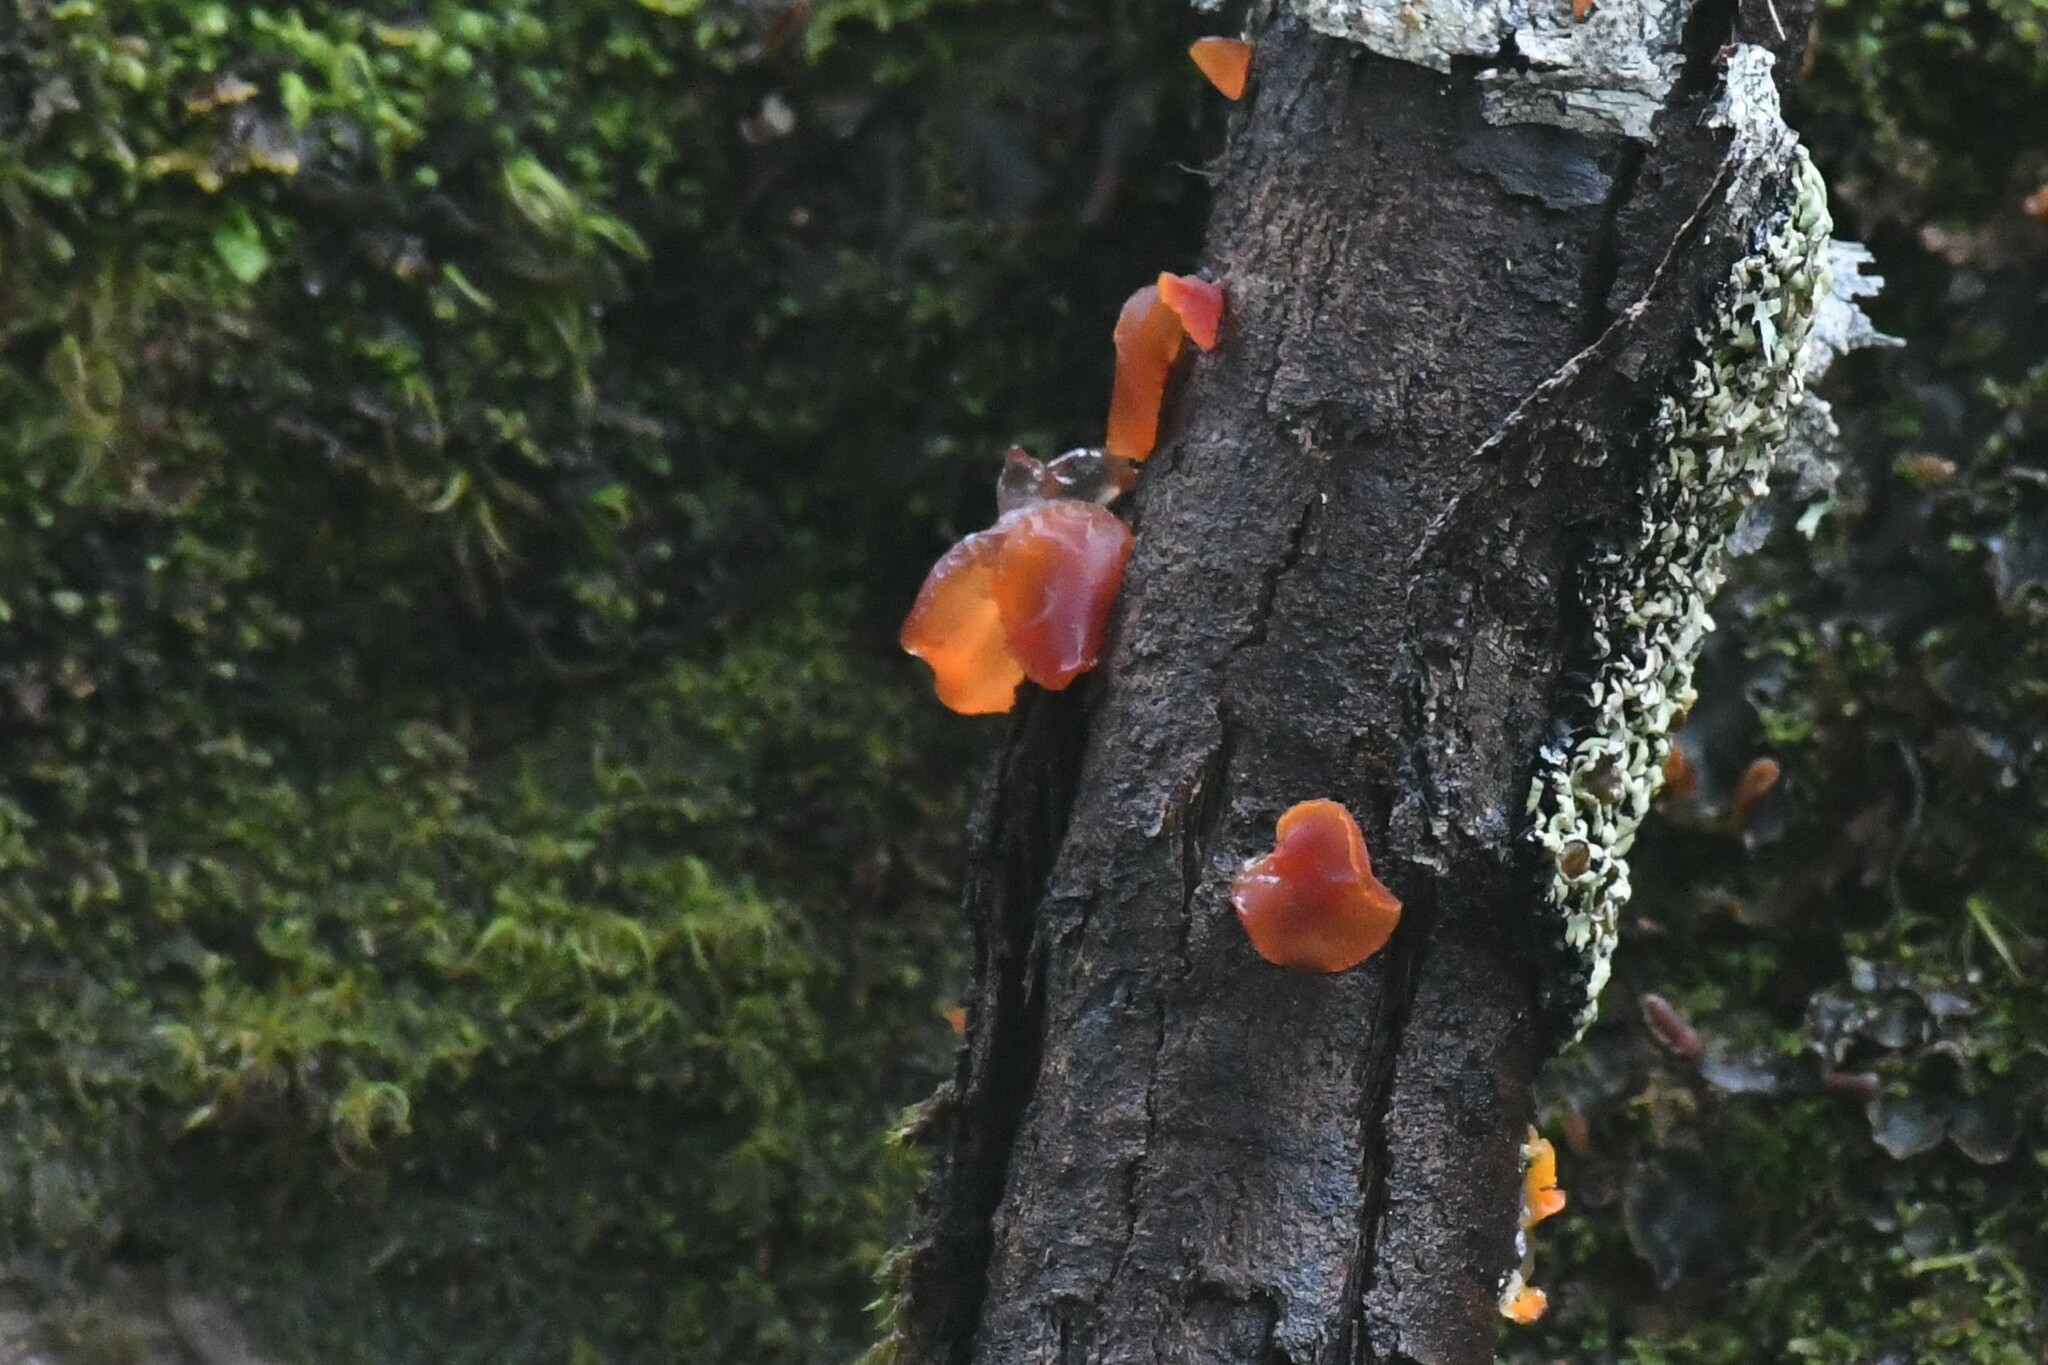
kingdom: Fungi
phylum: Basidiomycota
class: Dacrymycetes
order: Dacrymycetales
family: Dacrymycetaceae
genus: Guepiniopsis
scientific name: Guepiniopsis alpina
